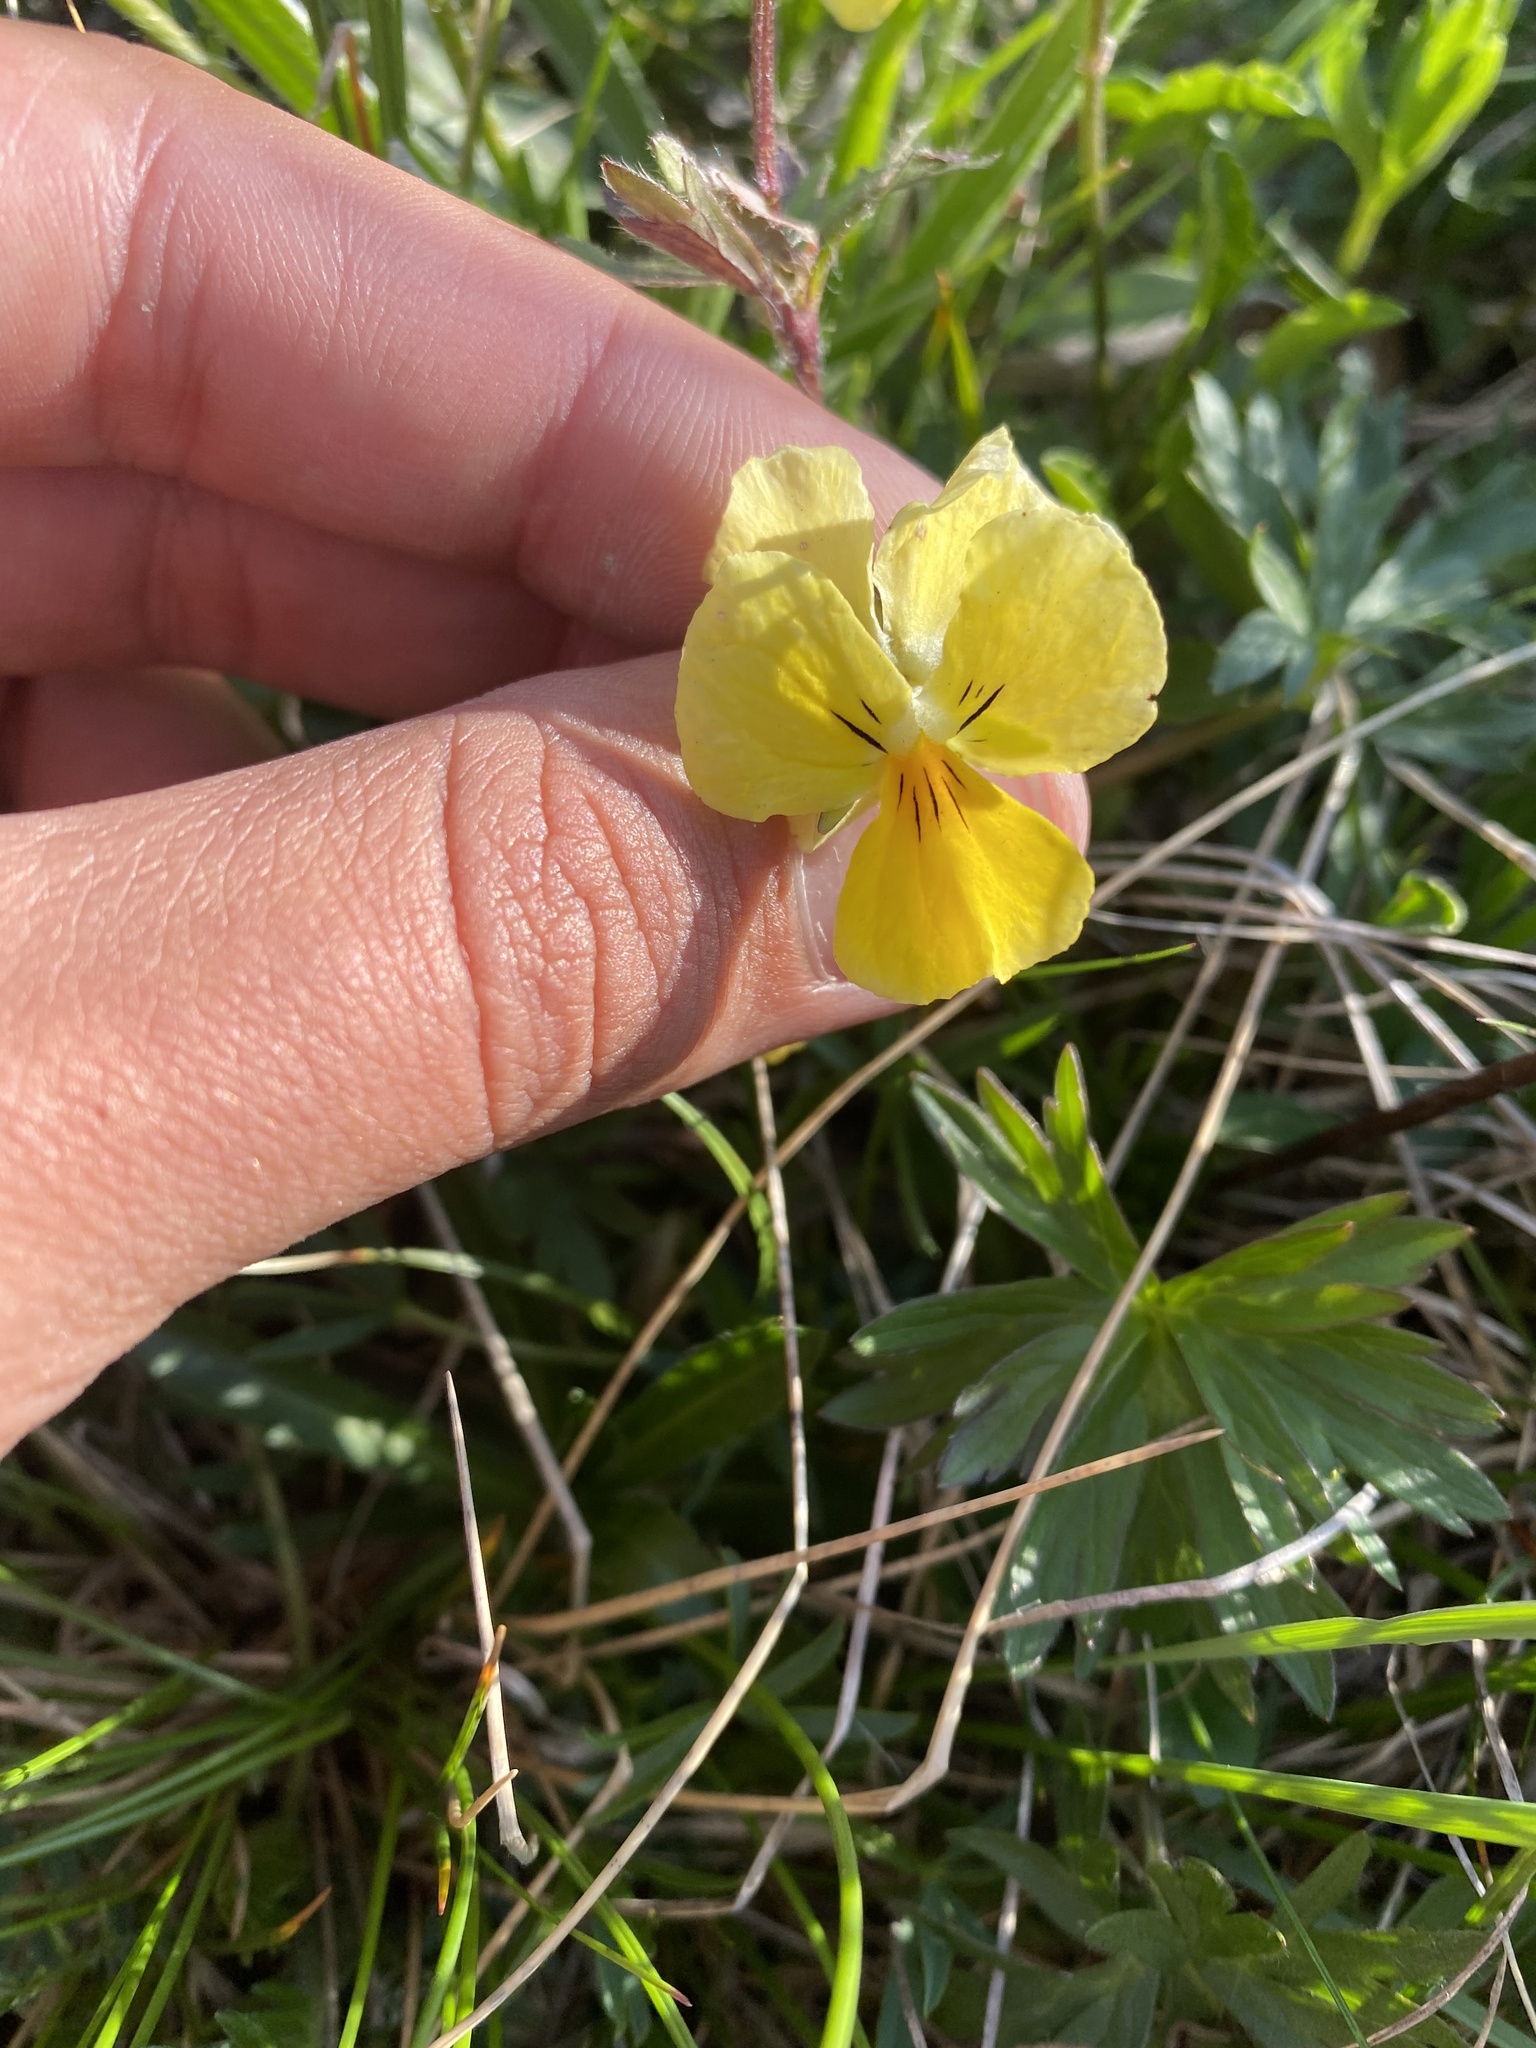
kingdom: Plantae
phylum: Tracheophyta
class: Magnoliopsida
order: Malpighiales
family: Violaceae
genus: Viola
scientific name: Viola oreades
